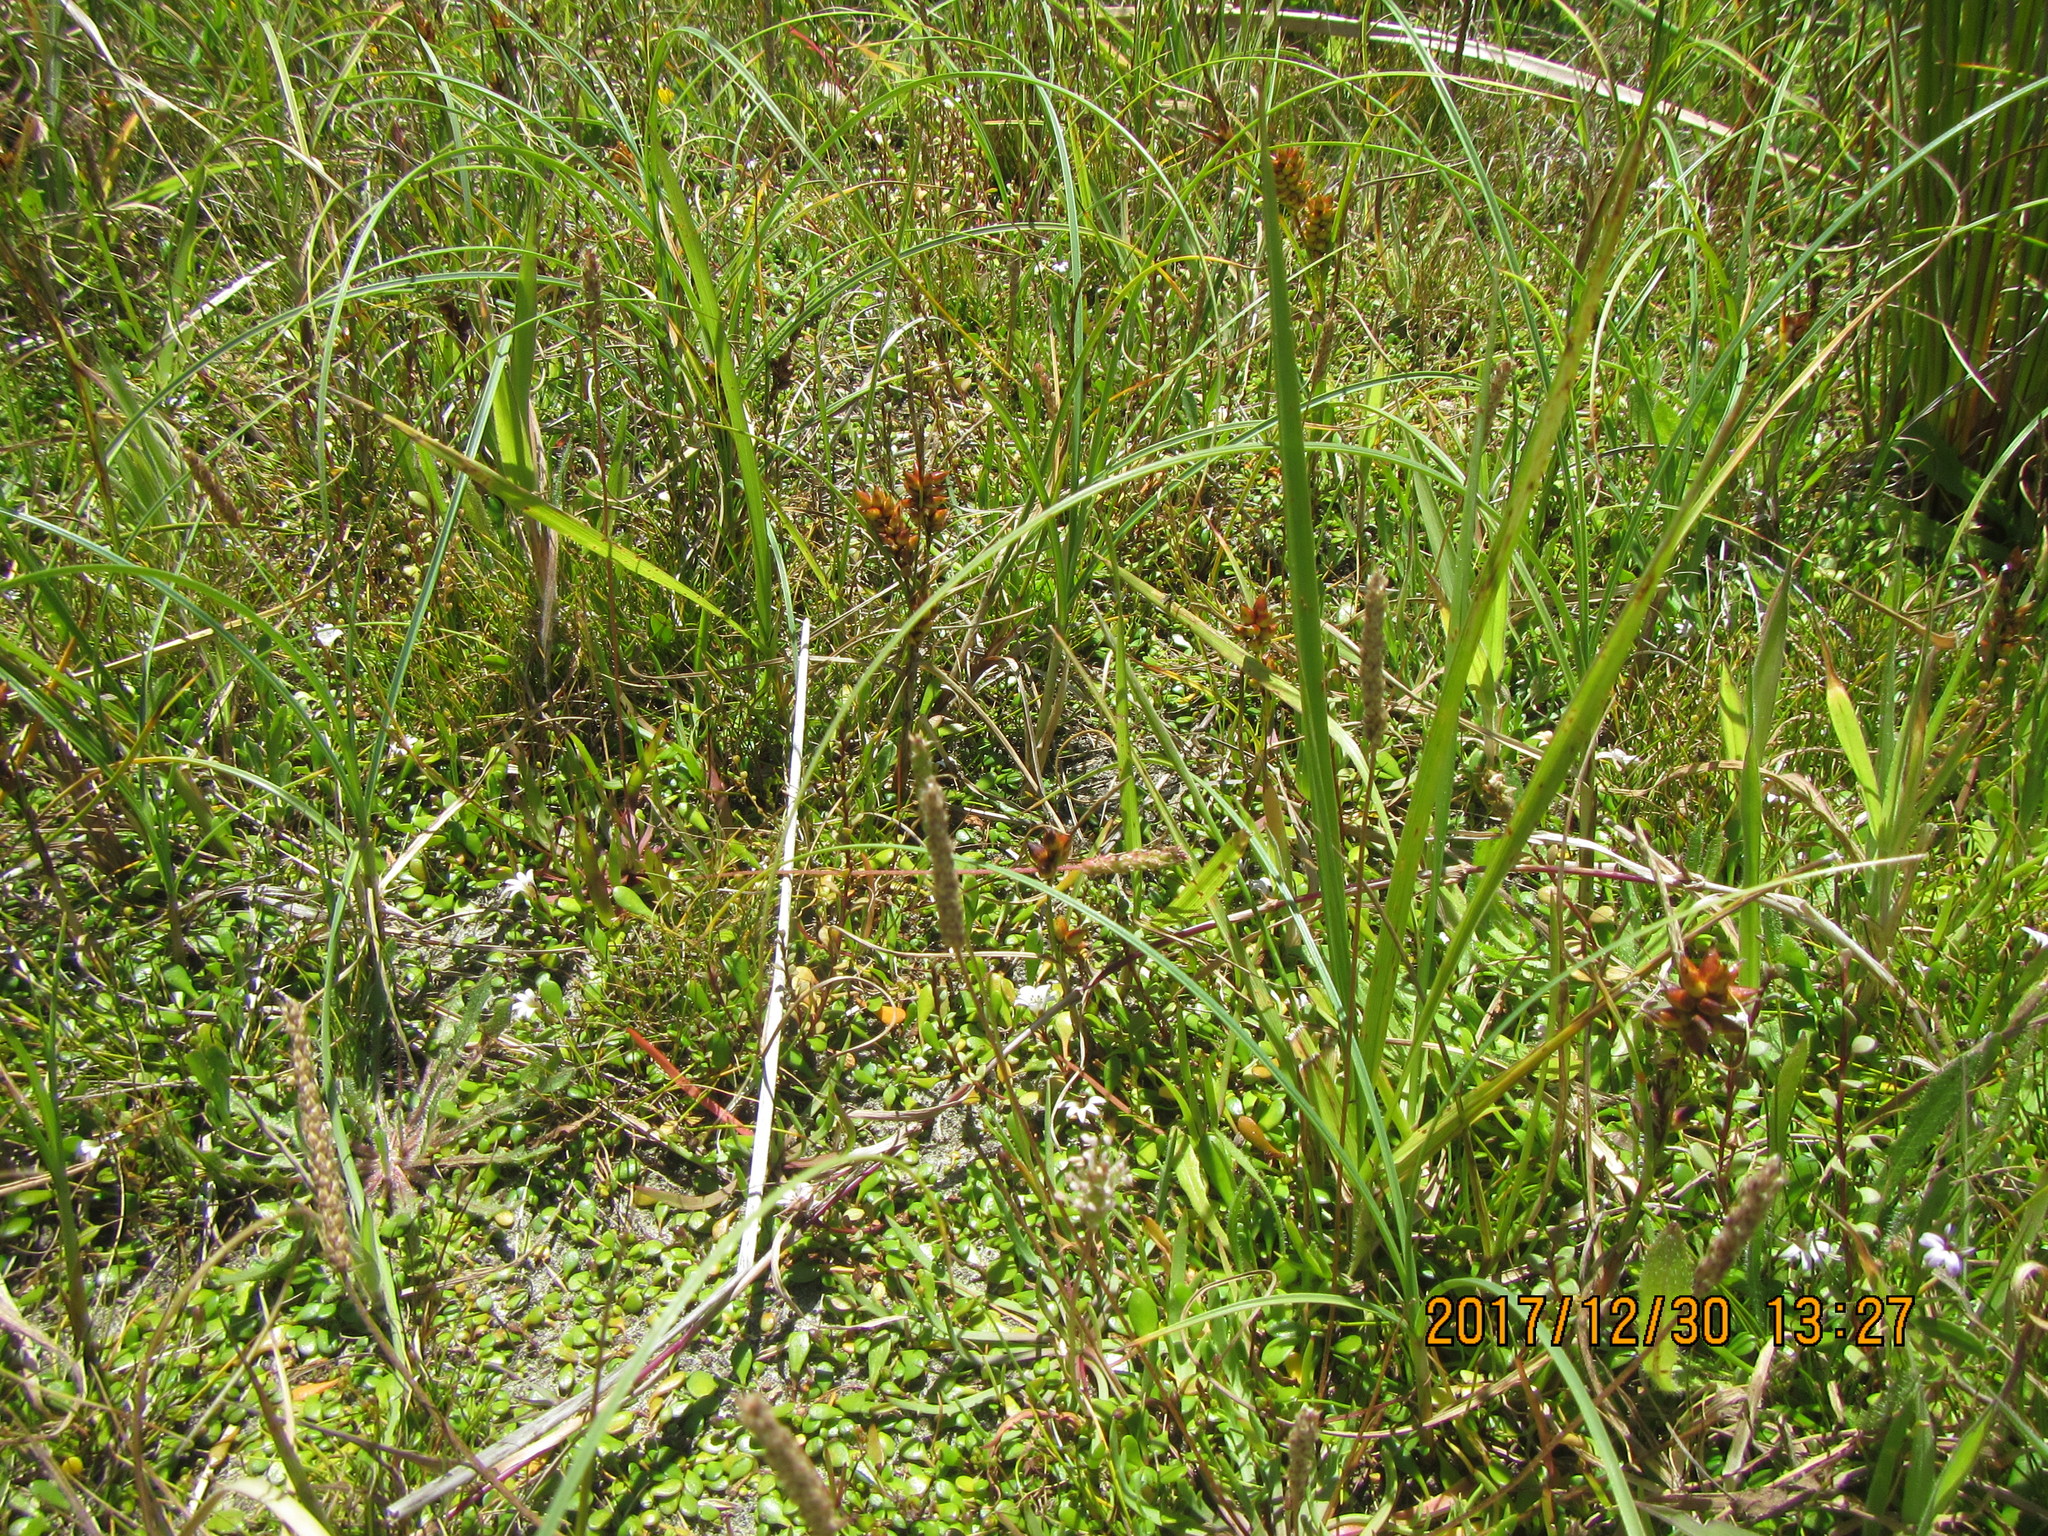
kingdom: Plantae
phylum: Tracheophyta
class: Liliopsida
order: Poales
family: Cyperaceae
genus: Carex
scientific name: Carex pumila
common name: Dwarf sedge
